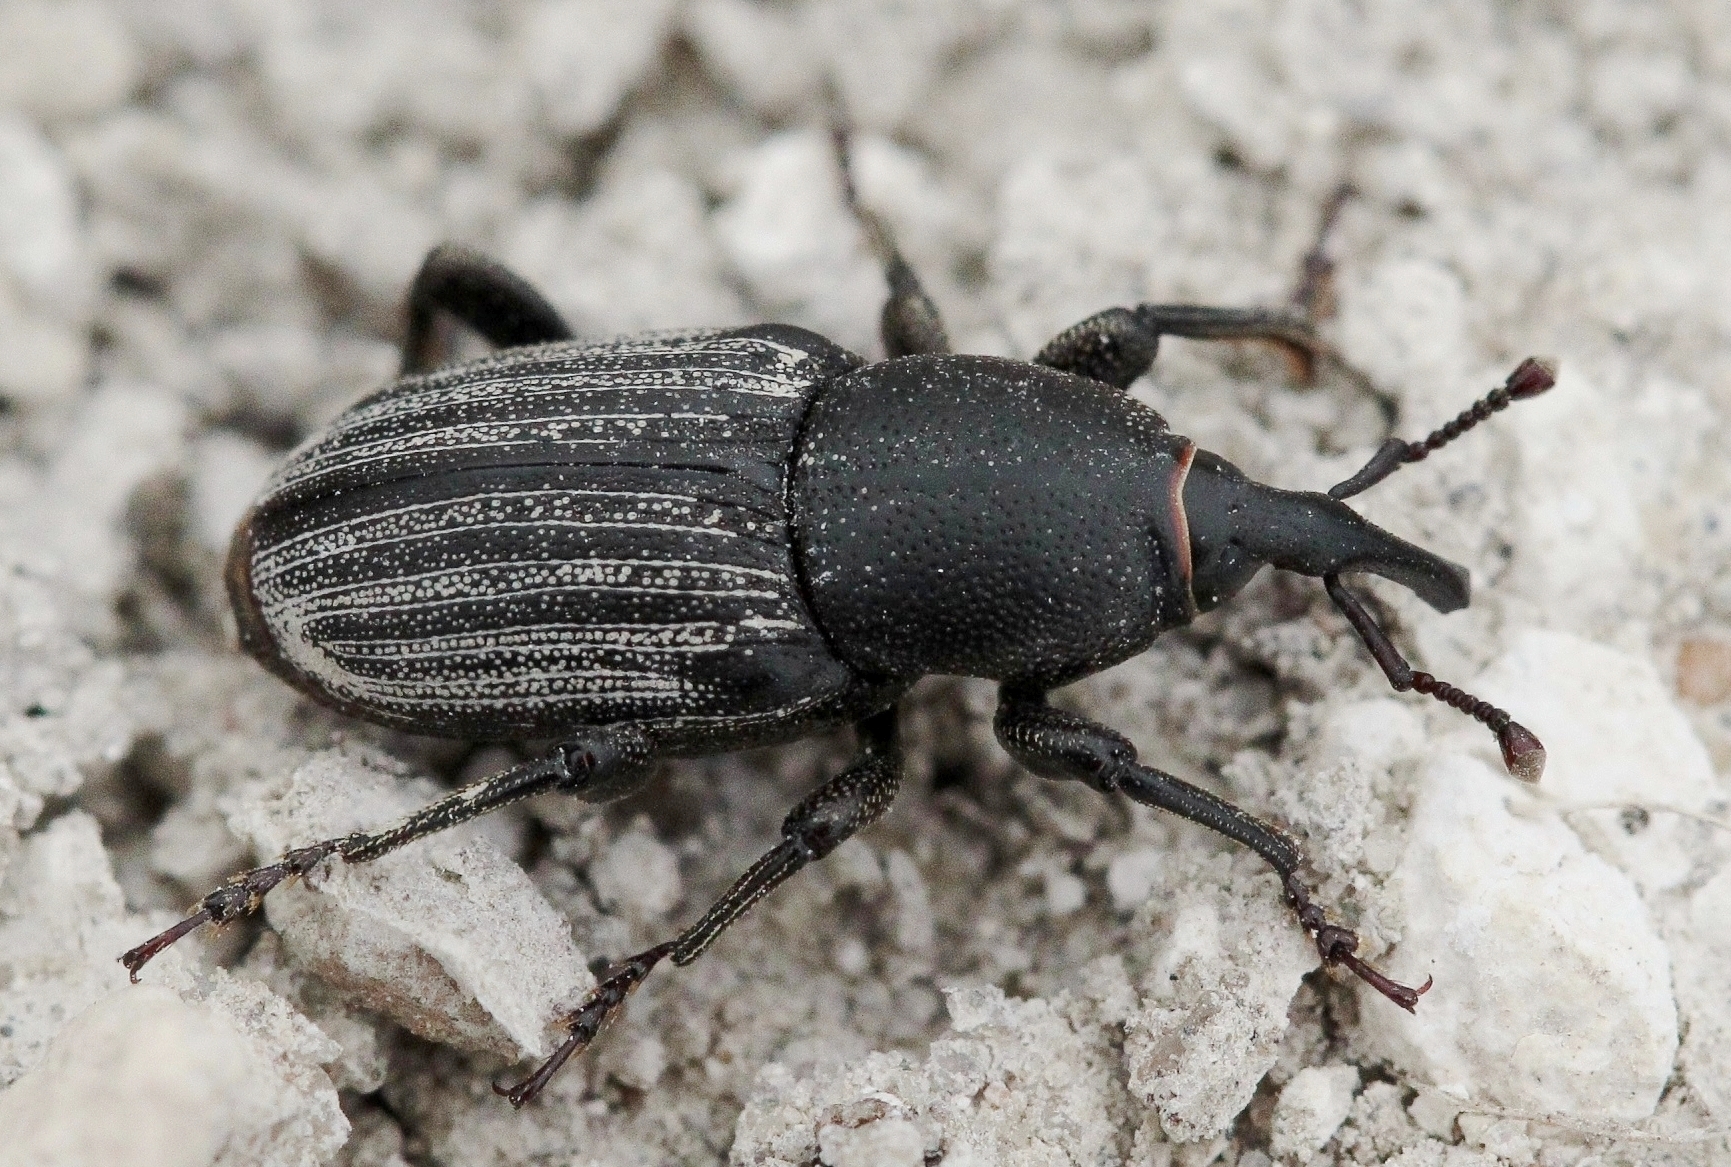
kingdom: Animalia
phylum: Arthropoda
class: Insecta
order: Coleoptera
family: Dryophthoridae
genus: Sphenophorus
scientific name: Sphenophorus striatopunctatus
